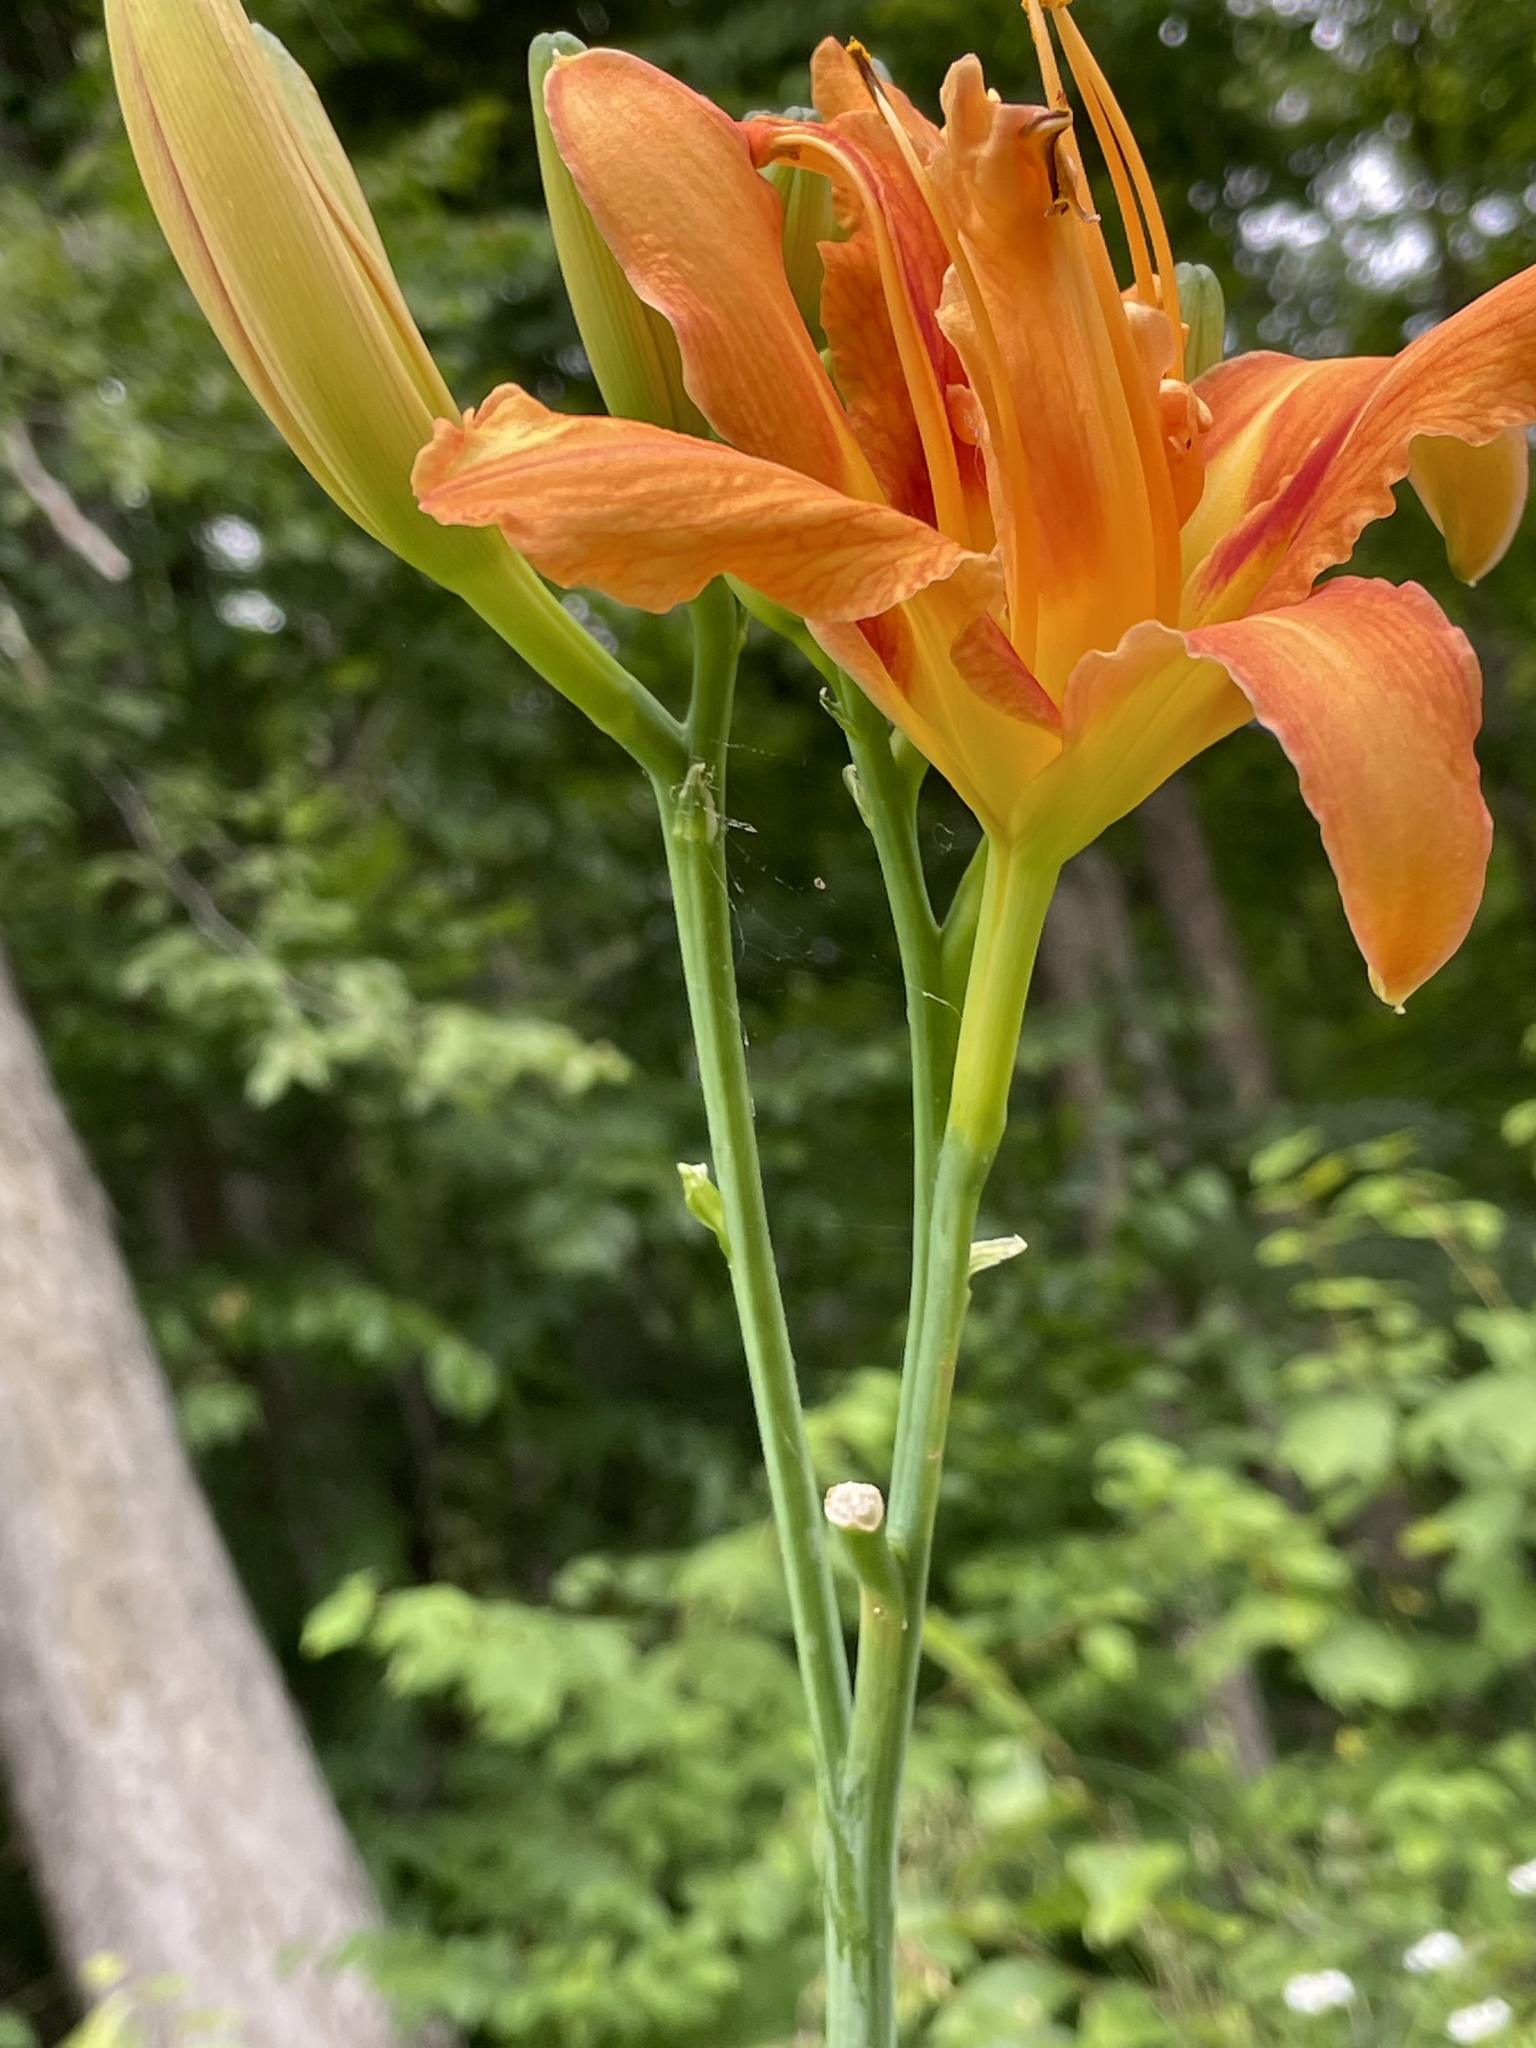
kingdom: Plantae
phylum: Tracheophyta
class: Liliopsida
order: Asparagales
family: Asphodelaceae
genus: Hemerocallis
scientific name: Hemerocallis fulva
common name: Orange day-lily
